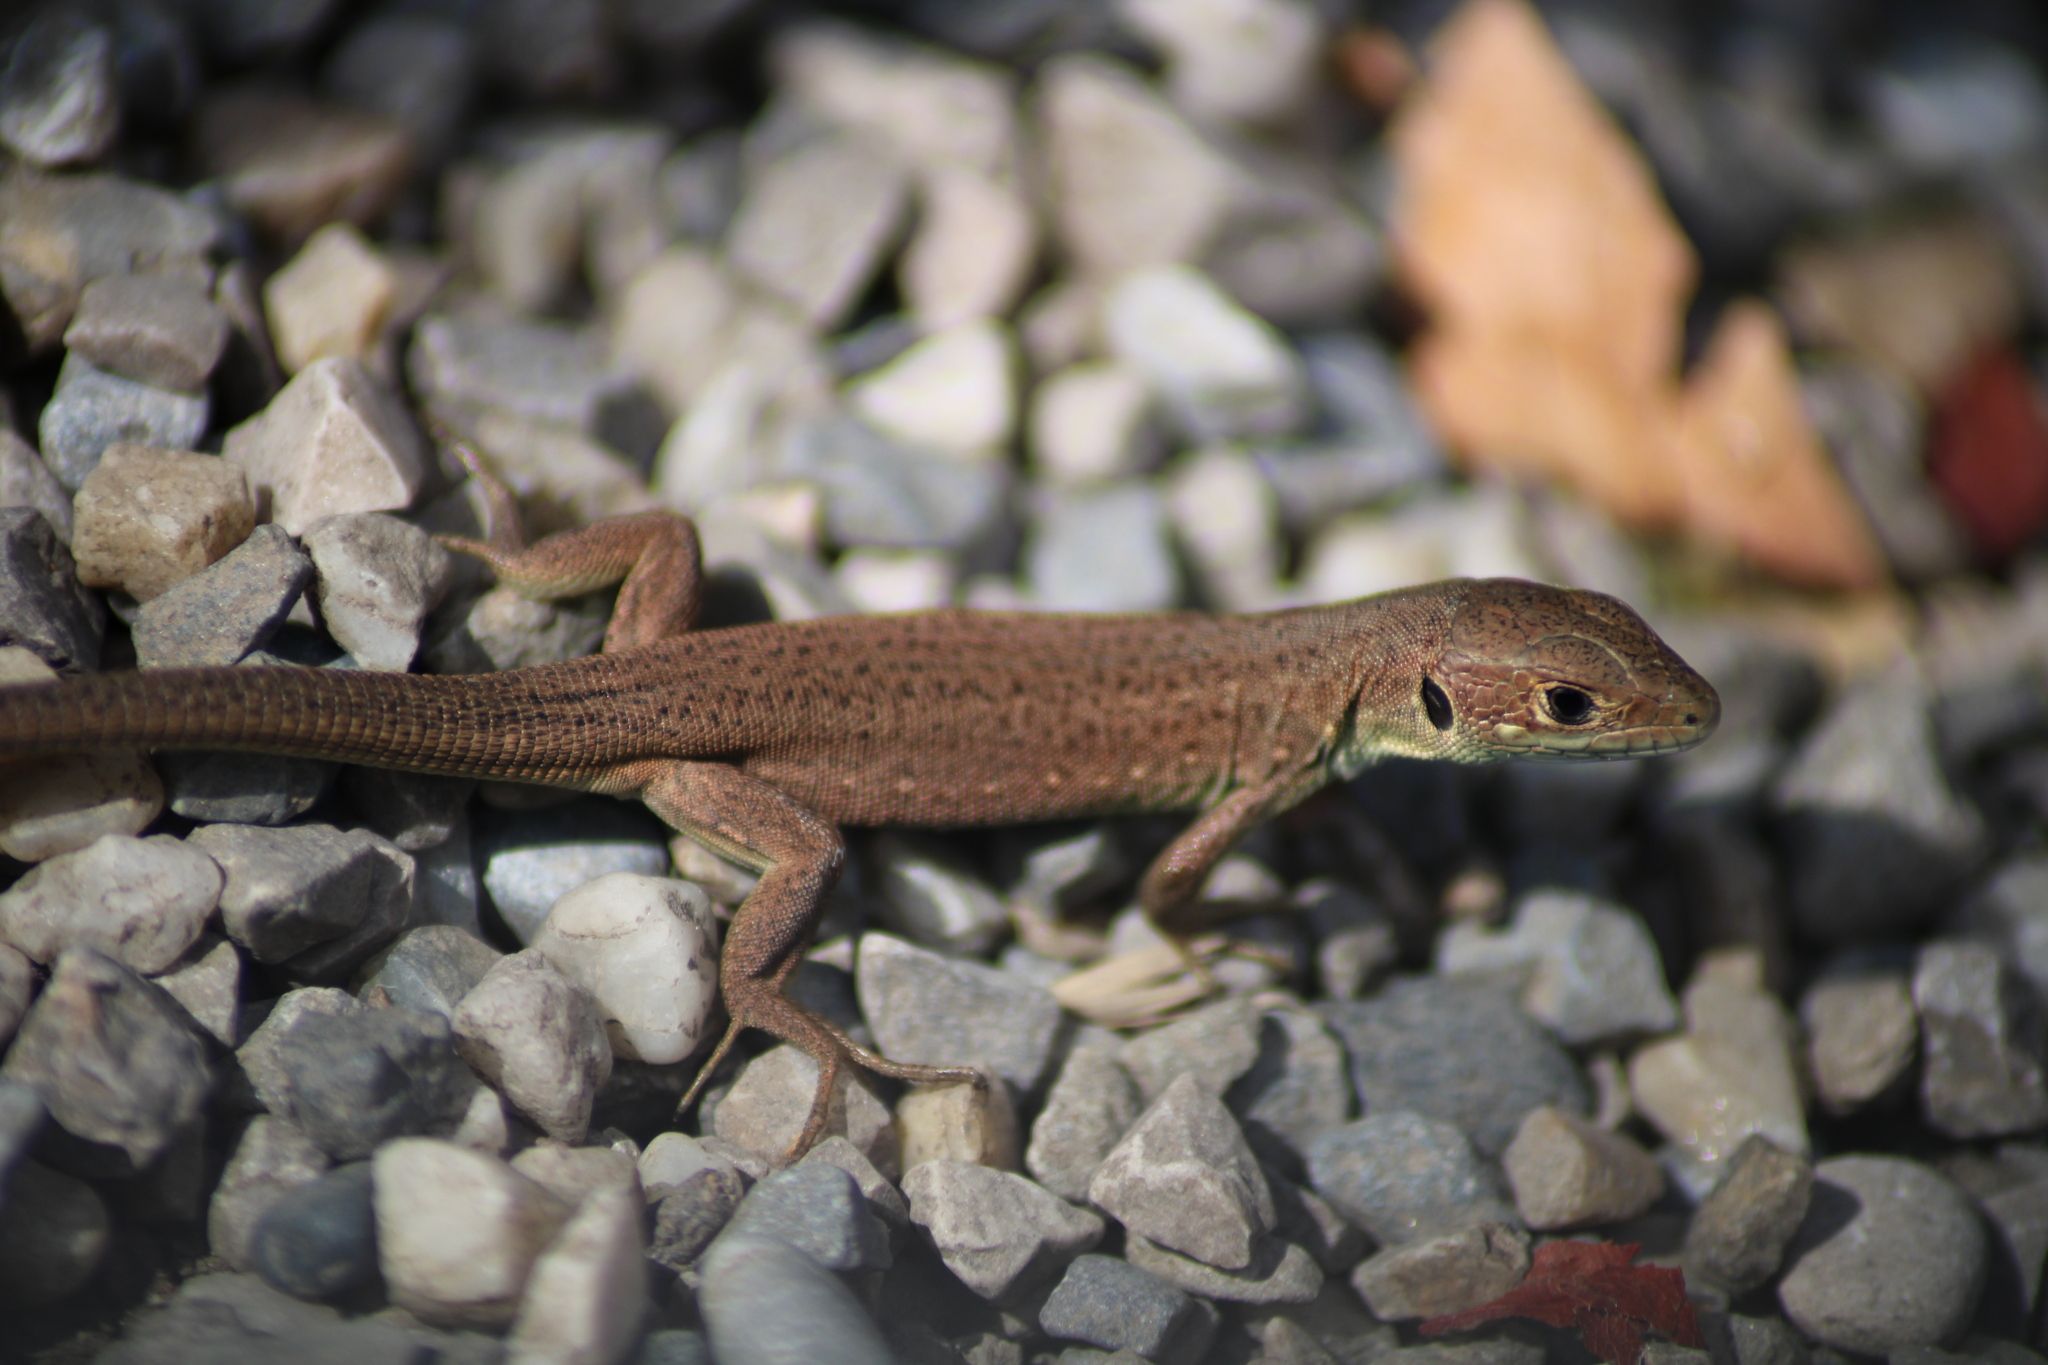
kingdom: Animalia
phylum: Chordata
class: Squamata
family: Lacertidae
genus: Lacerta
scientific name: Lacerta viridis
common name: European green lizard
